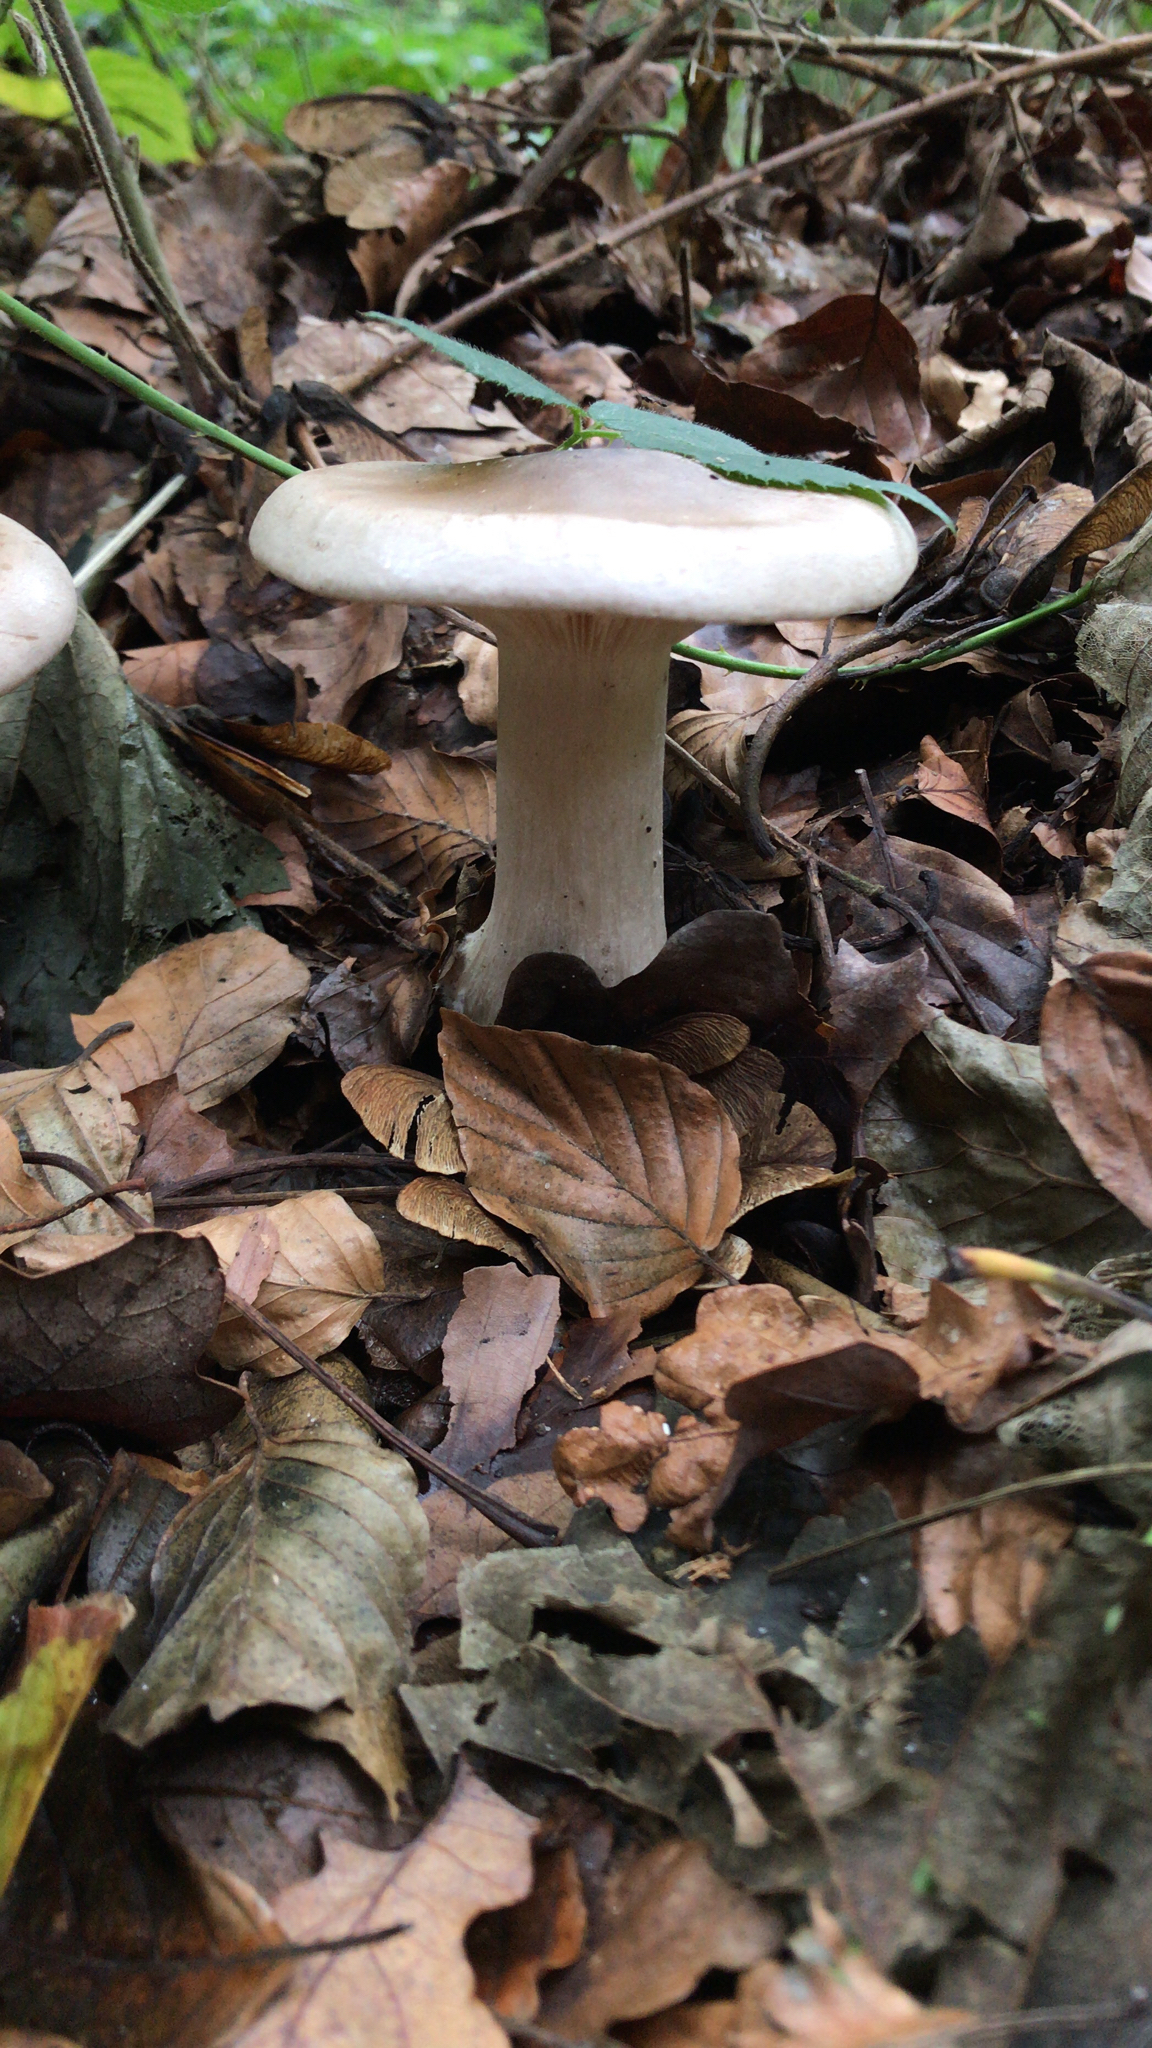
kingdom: Fungi
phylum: Basidiomycota
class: Agaricomycetes
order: Agaricales
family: Tricholomataceae
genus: Clitocybe
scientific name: Clitocybe nebularis
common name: Clouded agaric
